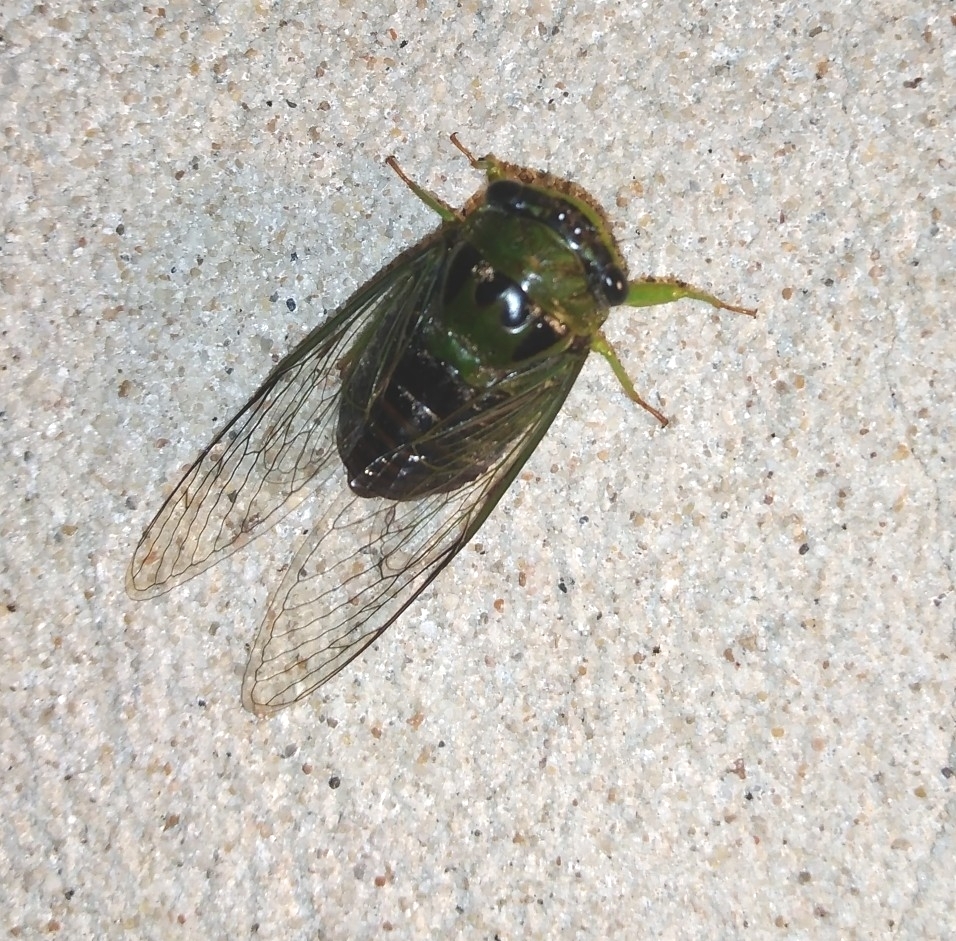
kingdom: Animalia
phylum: Arthropoda
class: Insecta
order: Hemiptera
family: Cicadidae
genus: Acanthoventris
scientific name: Acanthoventris drewseni
